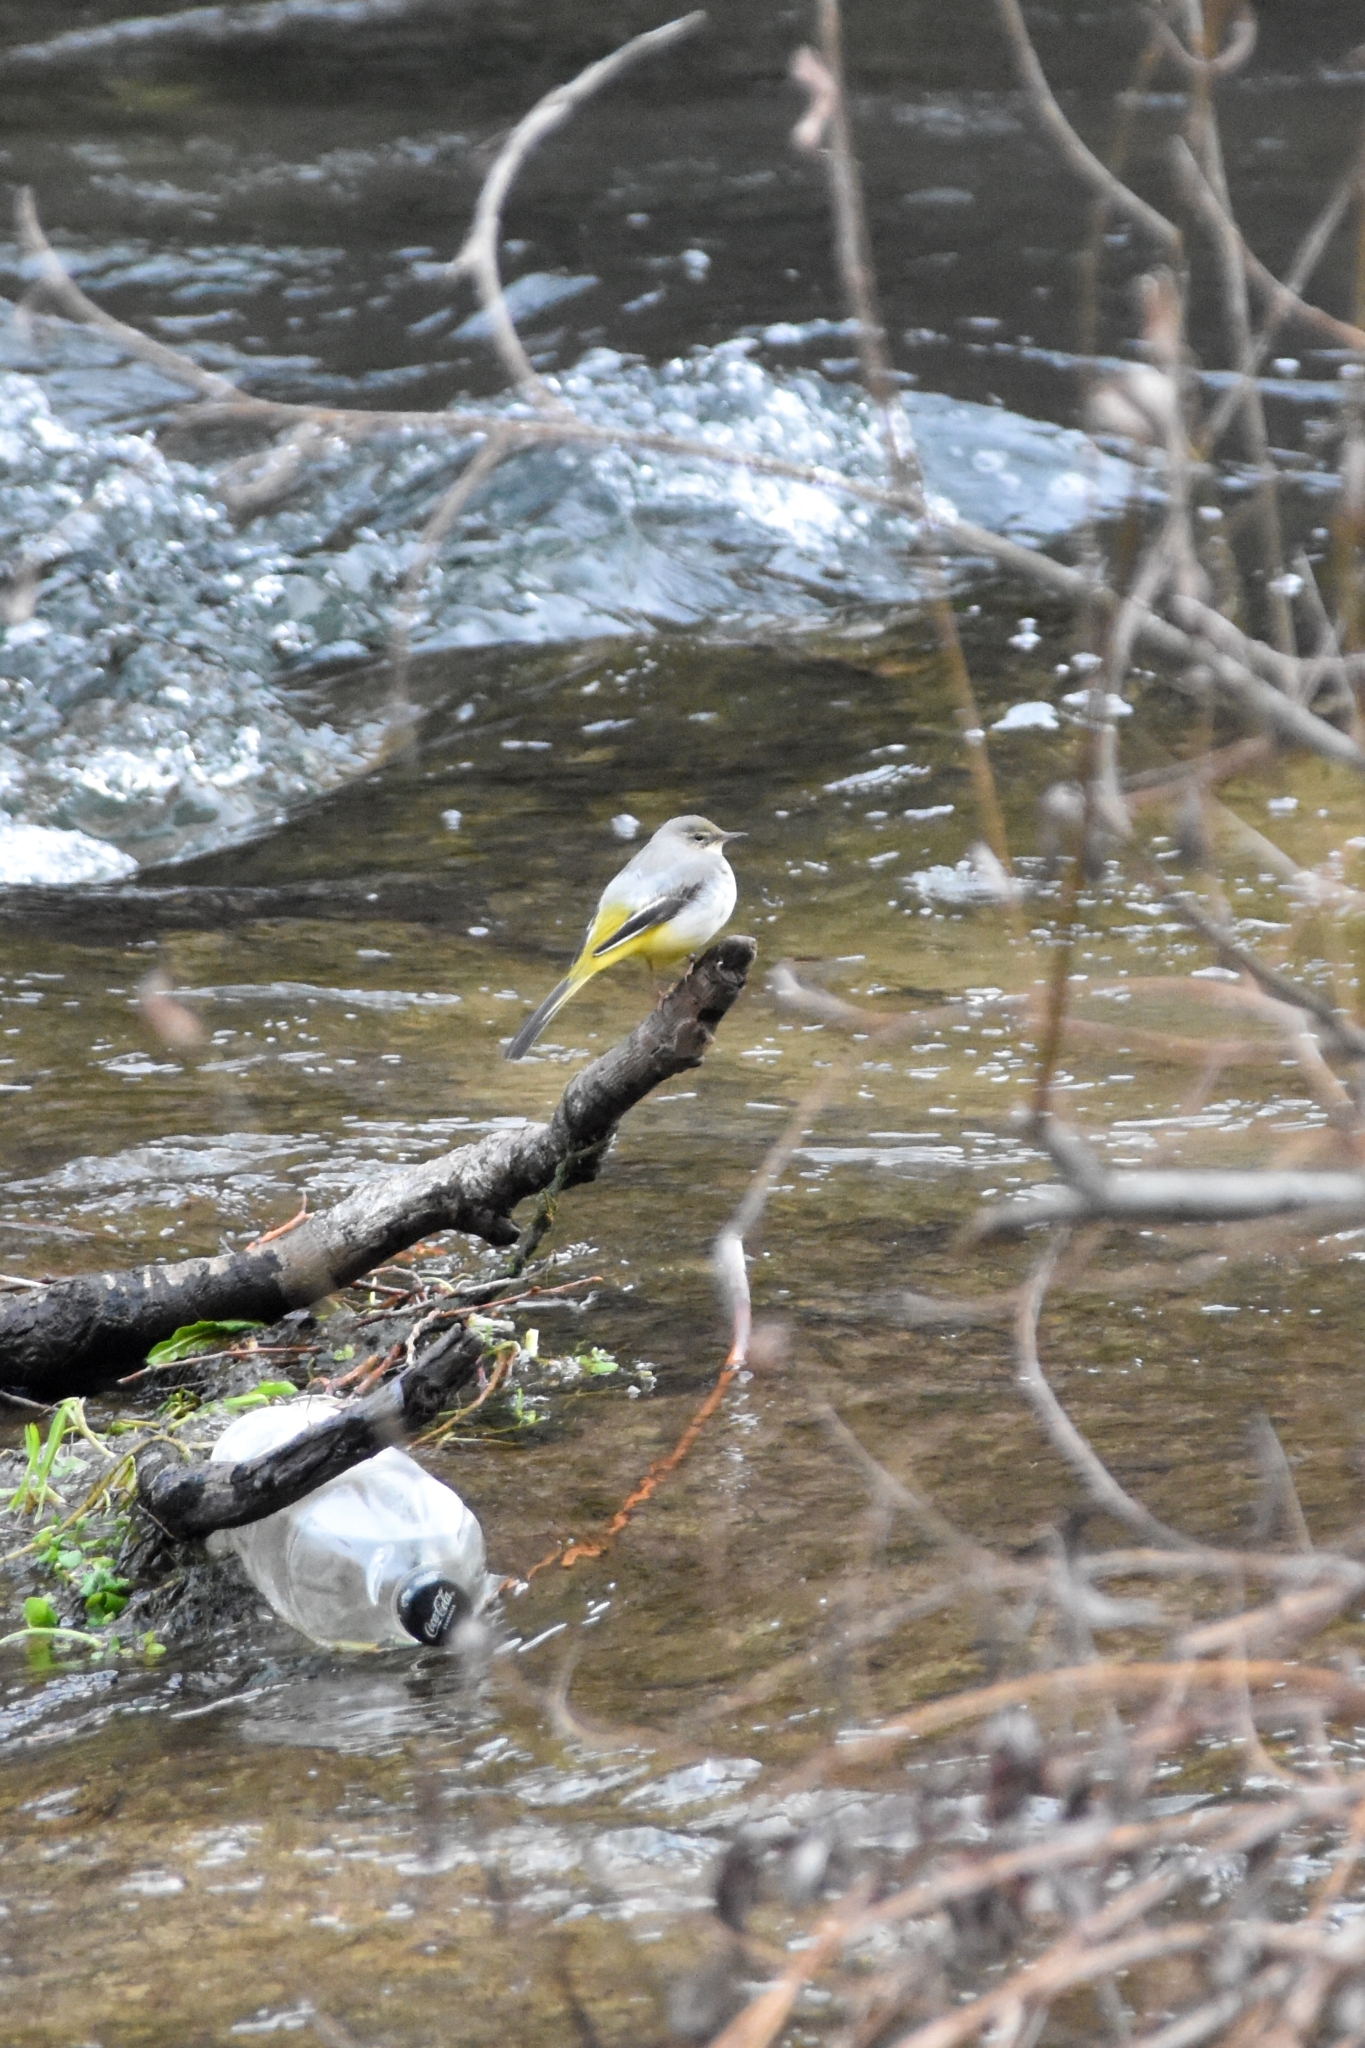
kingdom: Animalia
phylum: Chordata
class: Aves
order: Passeriformes
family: Motacillidae
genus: Motacilla
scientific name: Motacilla cinerea
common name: Grey wagtail
